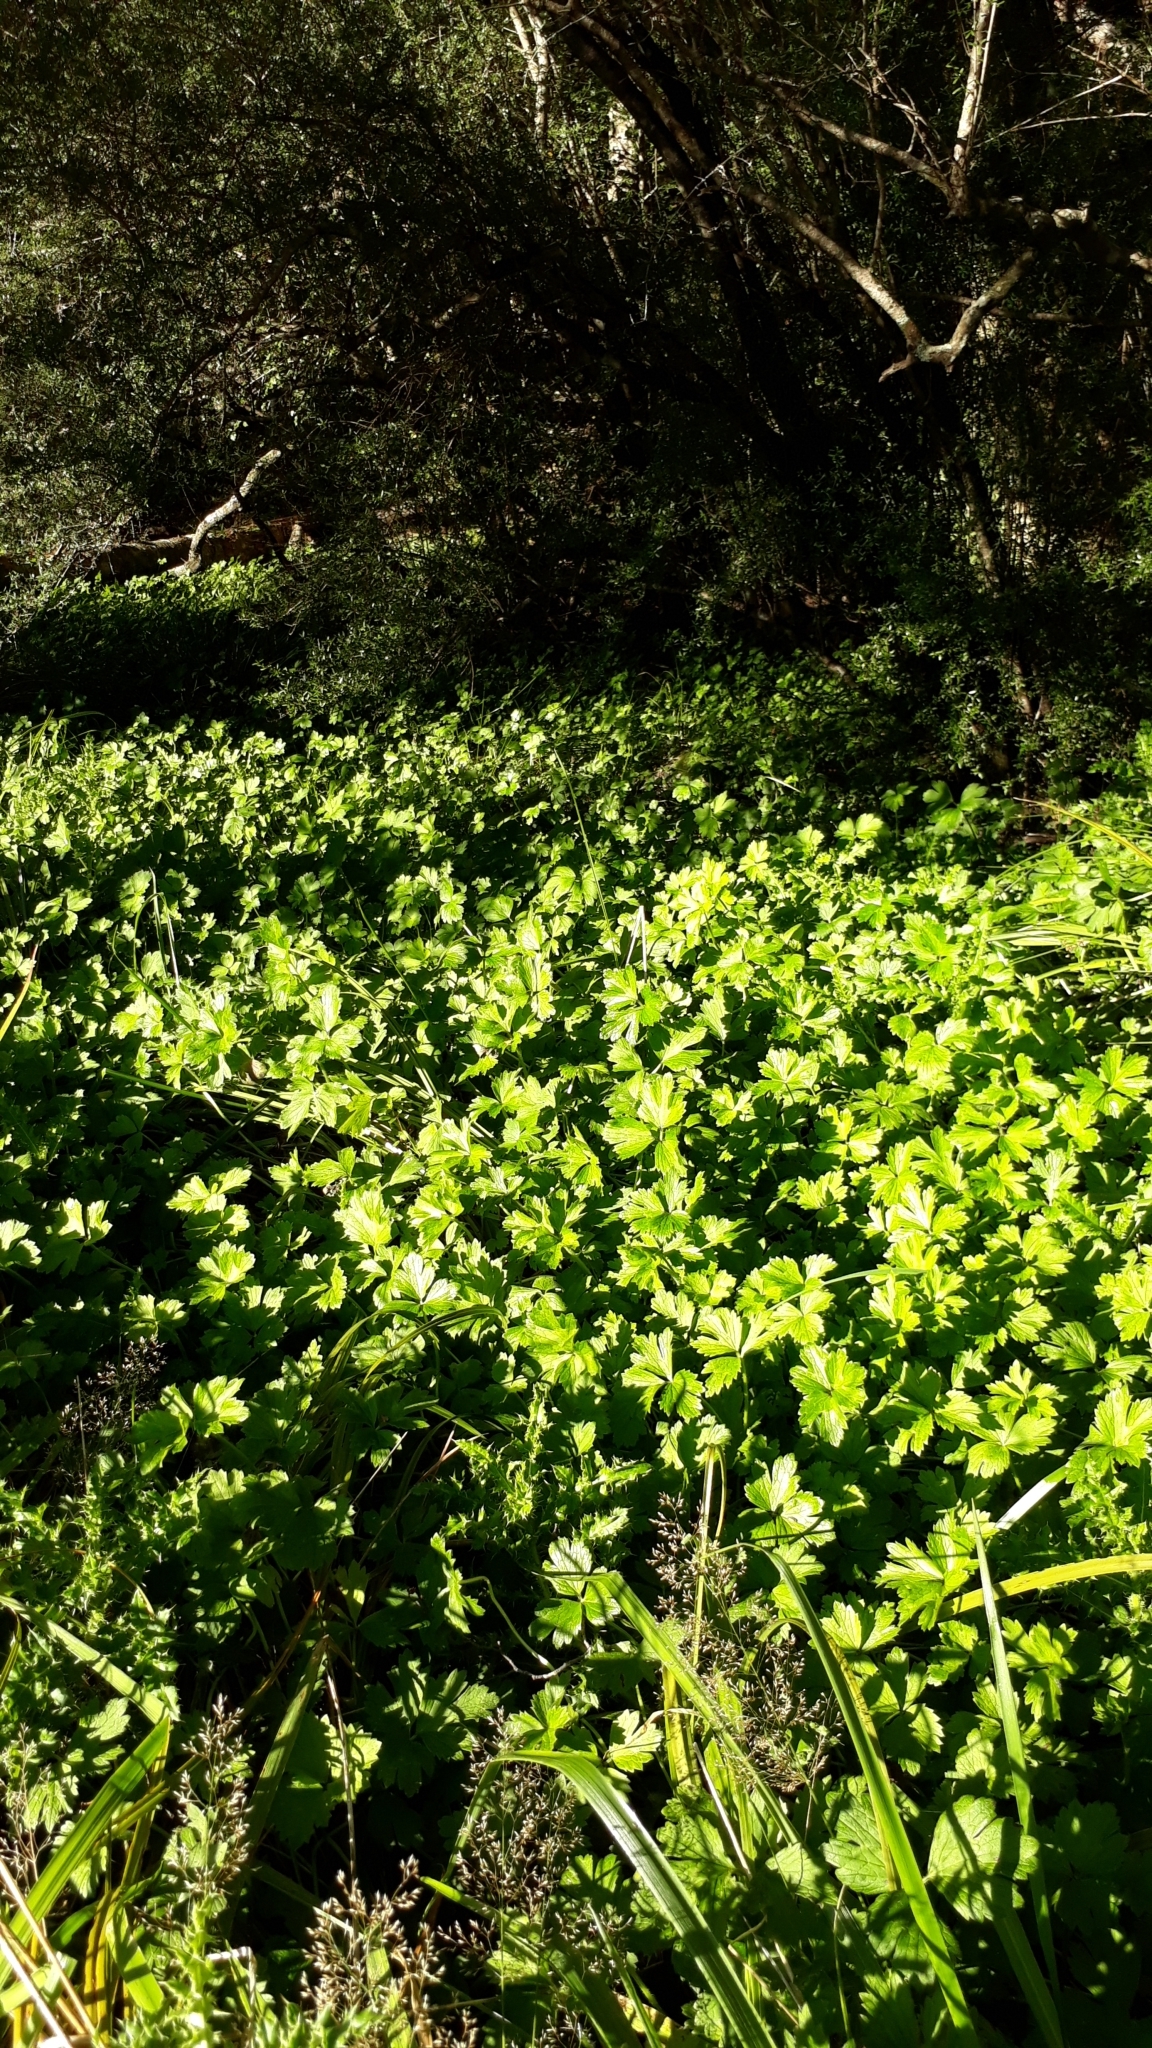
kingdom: Plantae
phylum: Tracheophyta
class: Magnoliopsida
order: Ranunculales
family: Ranunculaceae
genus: Ranunculus
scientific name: Ranunculus repens
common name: Creeping buttercup
